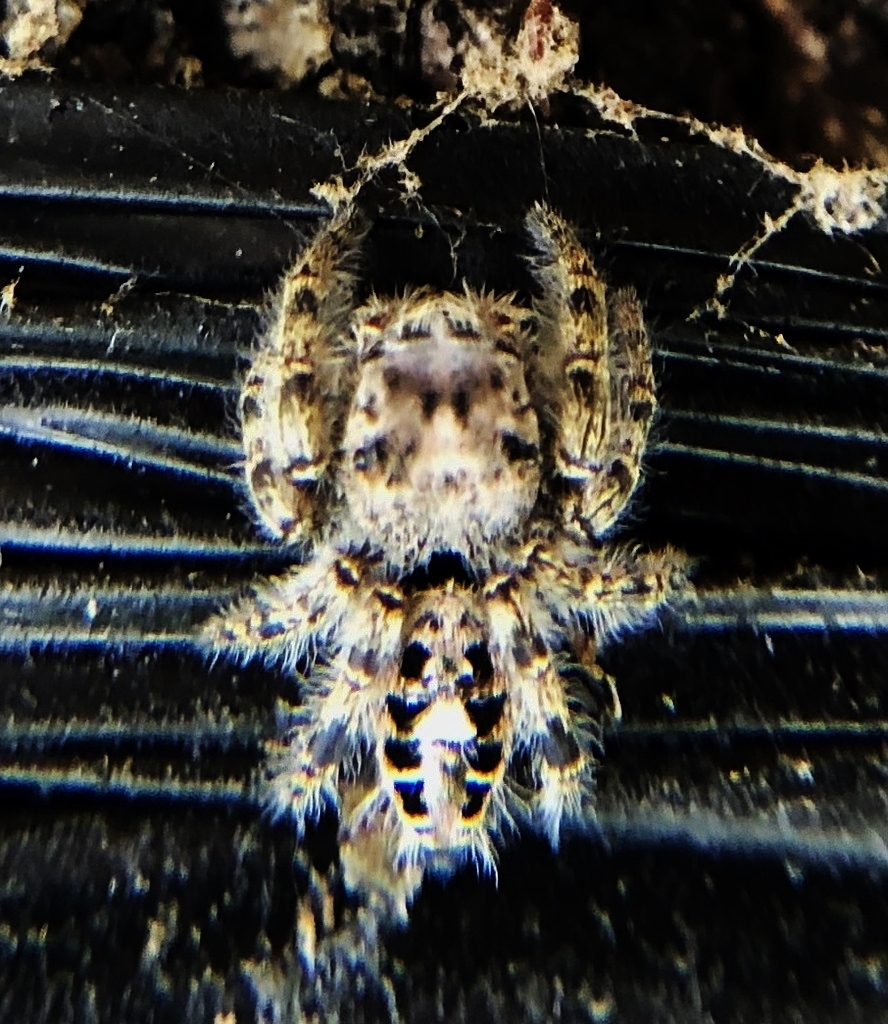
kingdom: Animalia
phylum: Arthropoda
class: Arachnida
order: Araneae
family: Salticidae
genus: Phidippus
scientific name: Phidippus putnami
